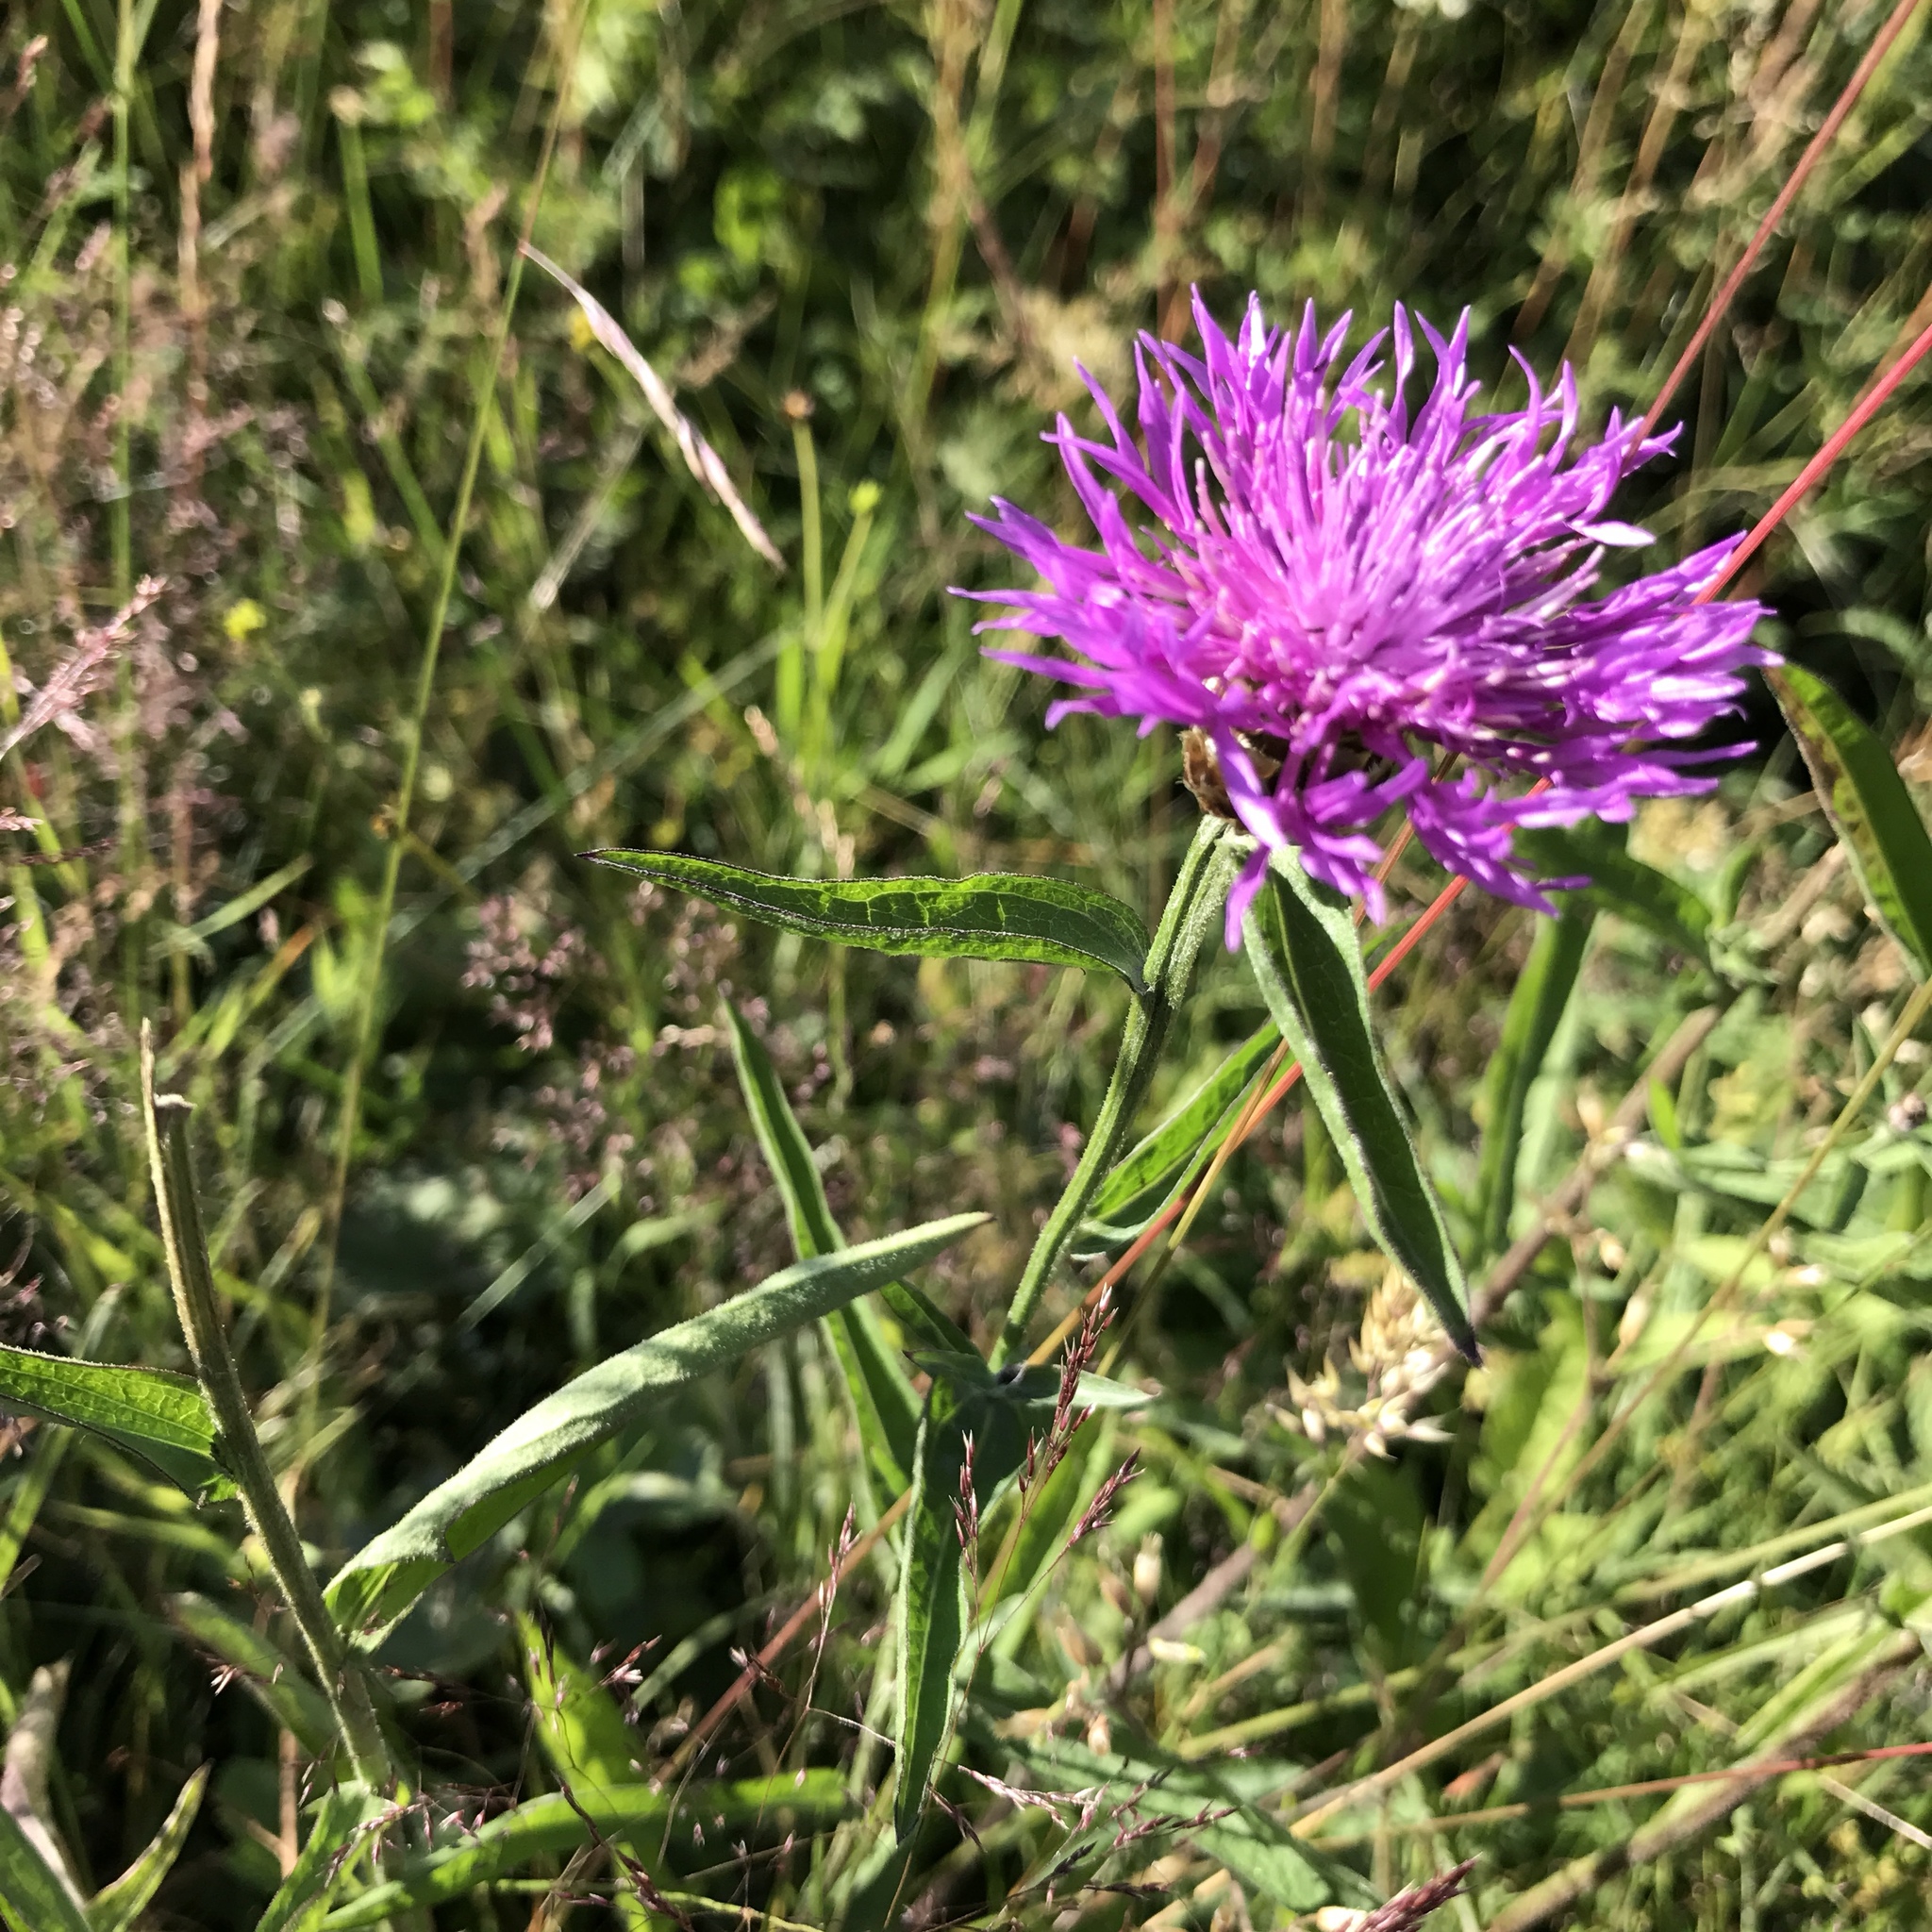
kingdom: Plantae
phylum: Tracheophyta
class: Magnoliopsida
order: Asterales
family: Asteraceae
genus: Centaurea
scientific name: Centaurea jacea
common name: Brown knapweed
